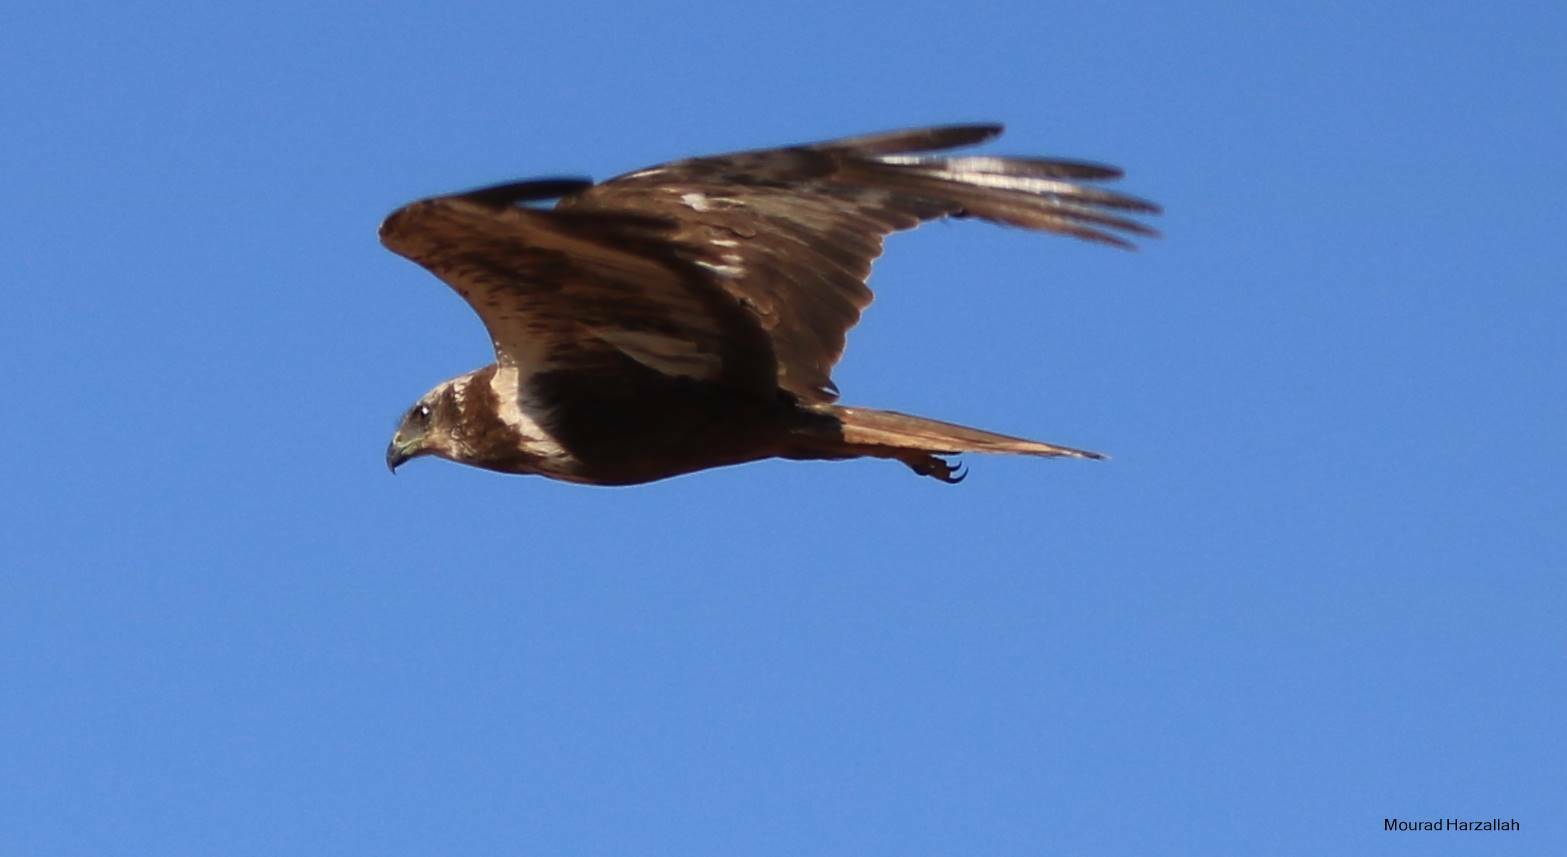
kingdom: Animalia
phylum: Chordata
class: Aves
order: Accipitriformes
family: Accipitridae
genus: Circus
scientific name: Circus aeruginosus
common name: Western marsh harrier
